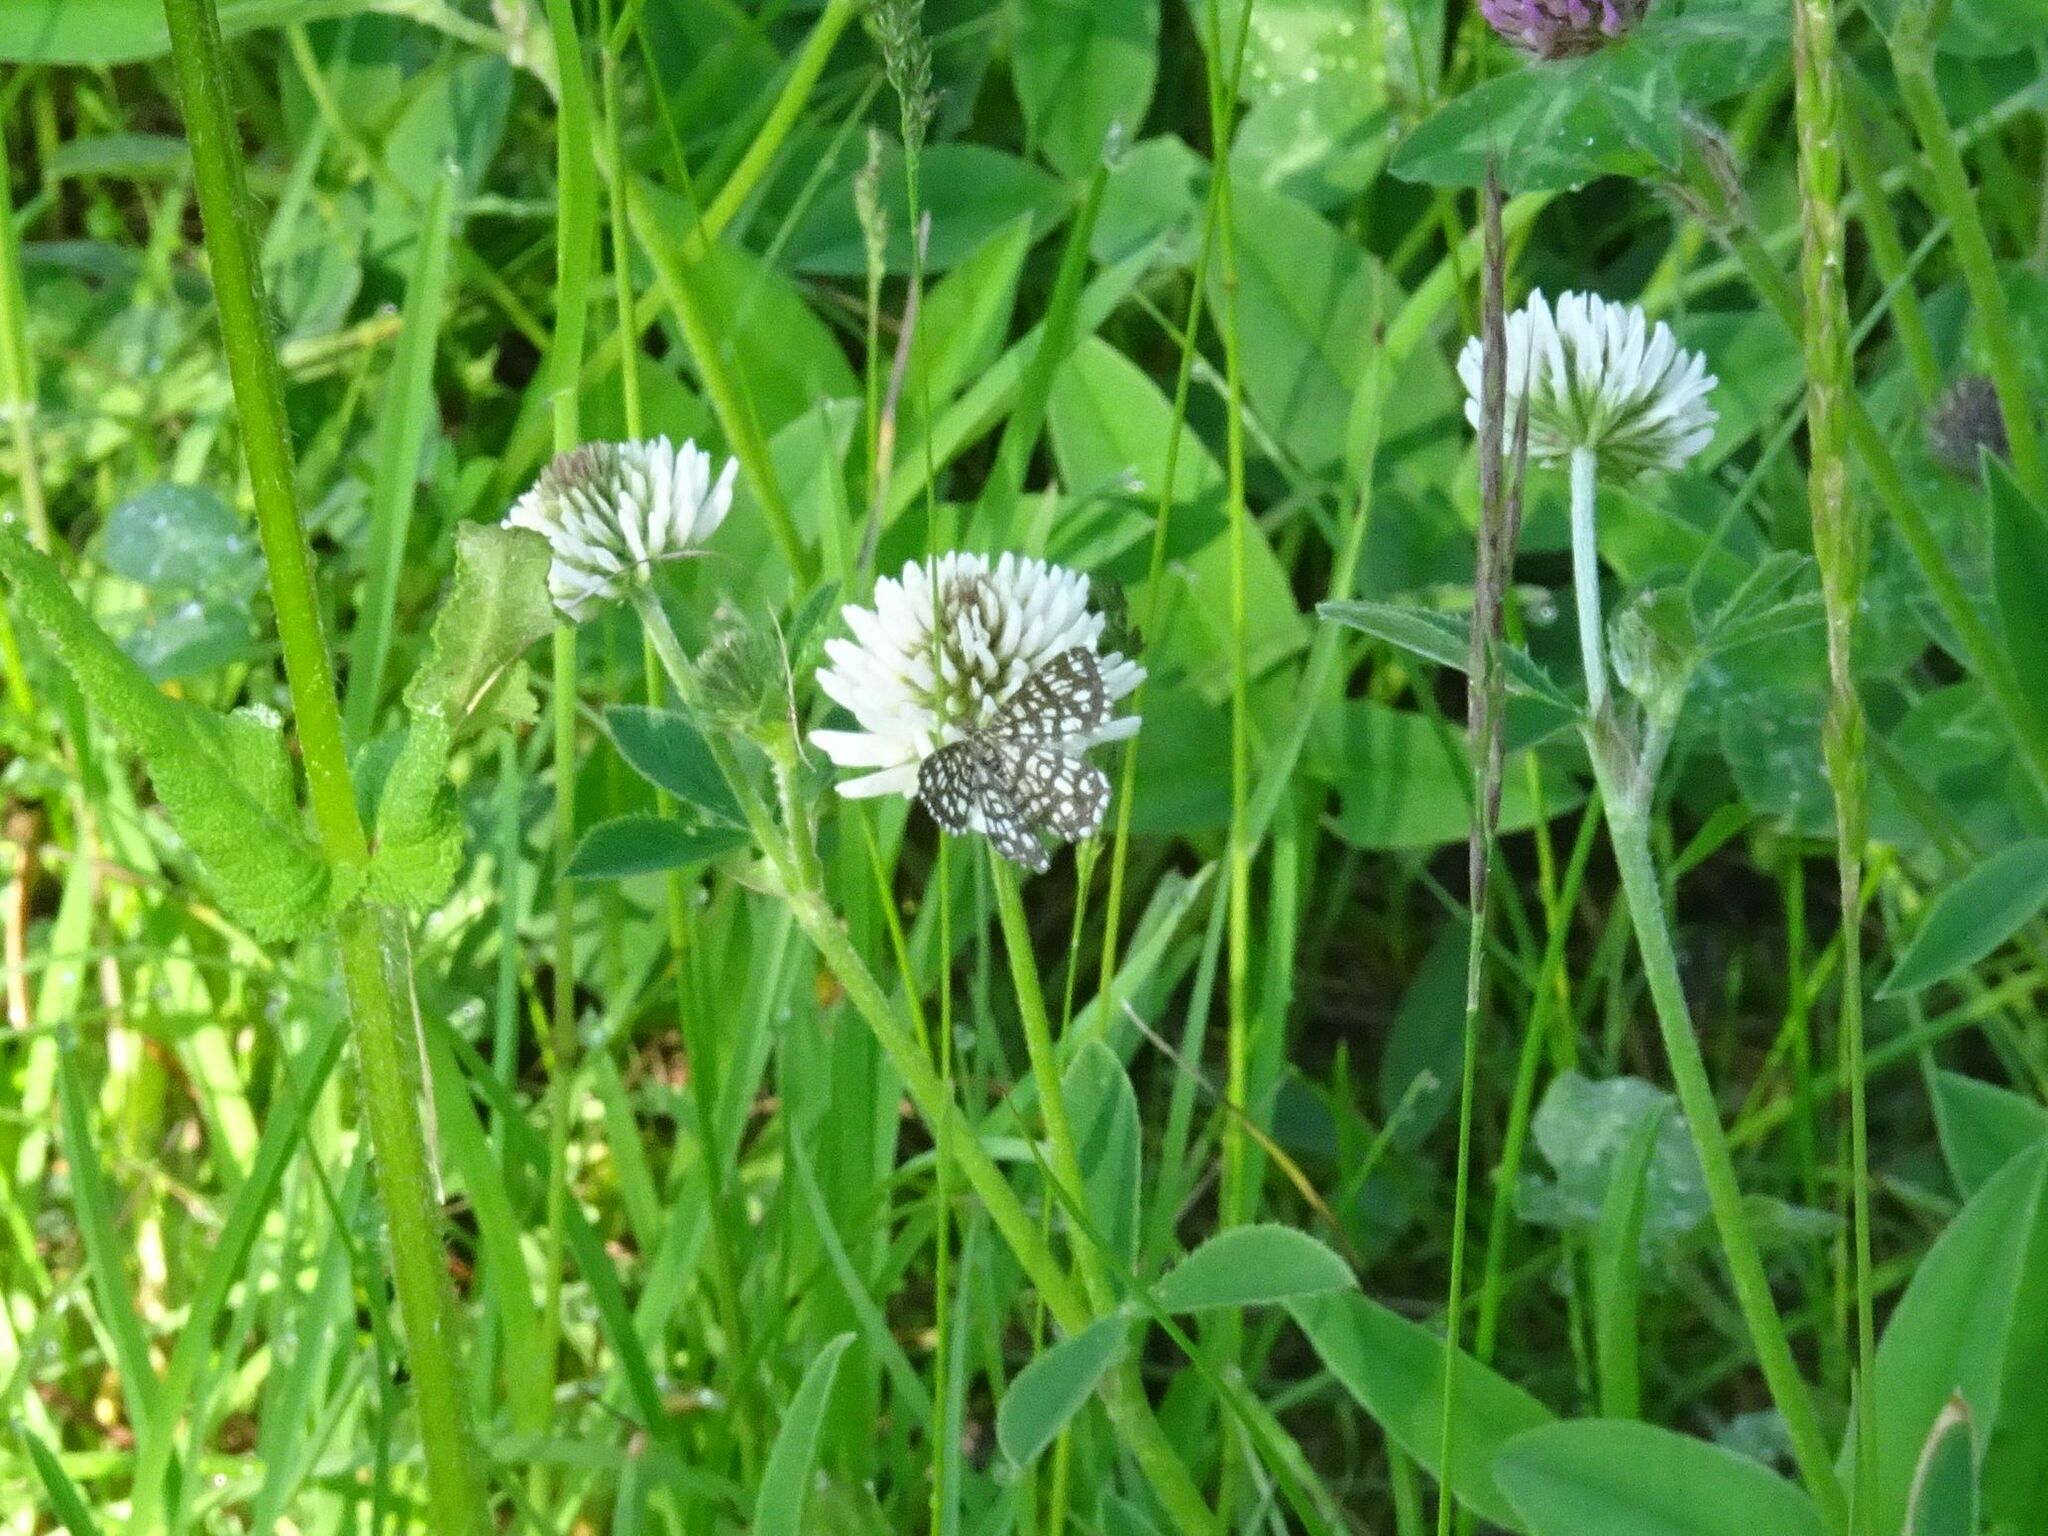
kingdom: Animalia
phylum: Arthropoda
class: Insecta
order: Lepidoptera
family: Geometridae
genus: Chiasmia
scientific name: Chiasmia clathrata
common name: Latticed heath
